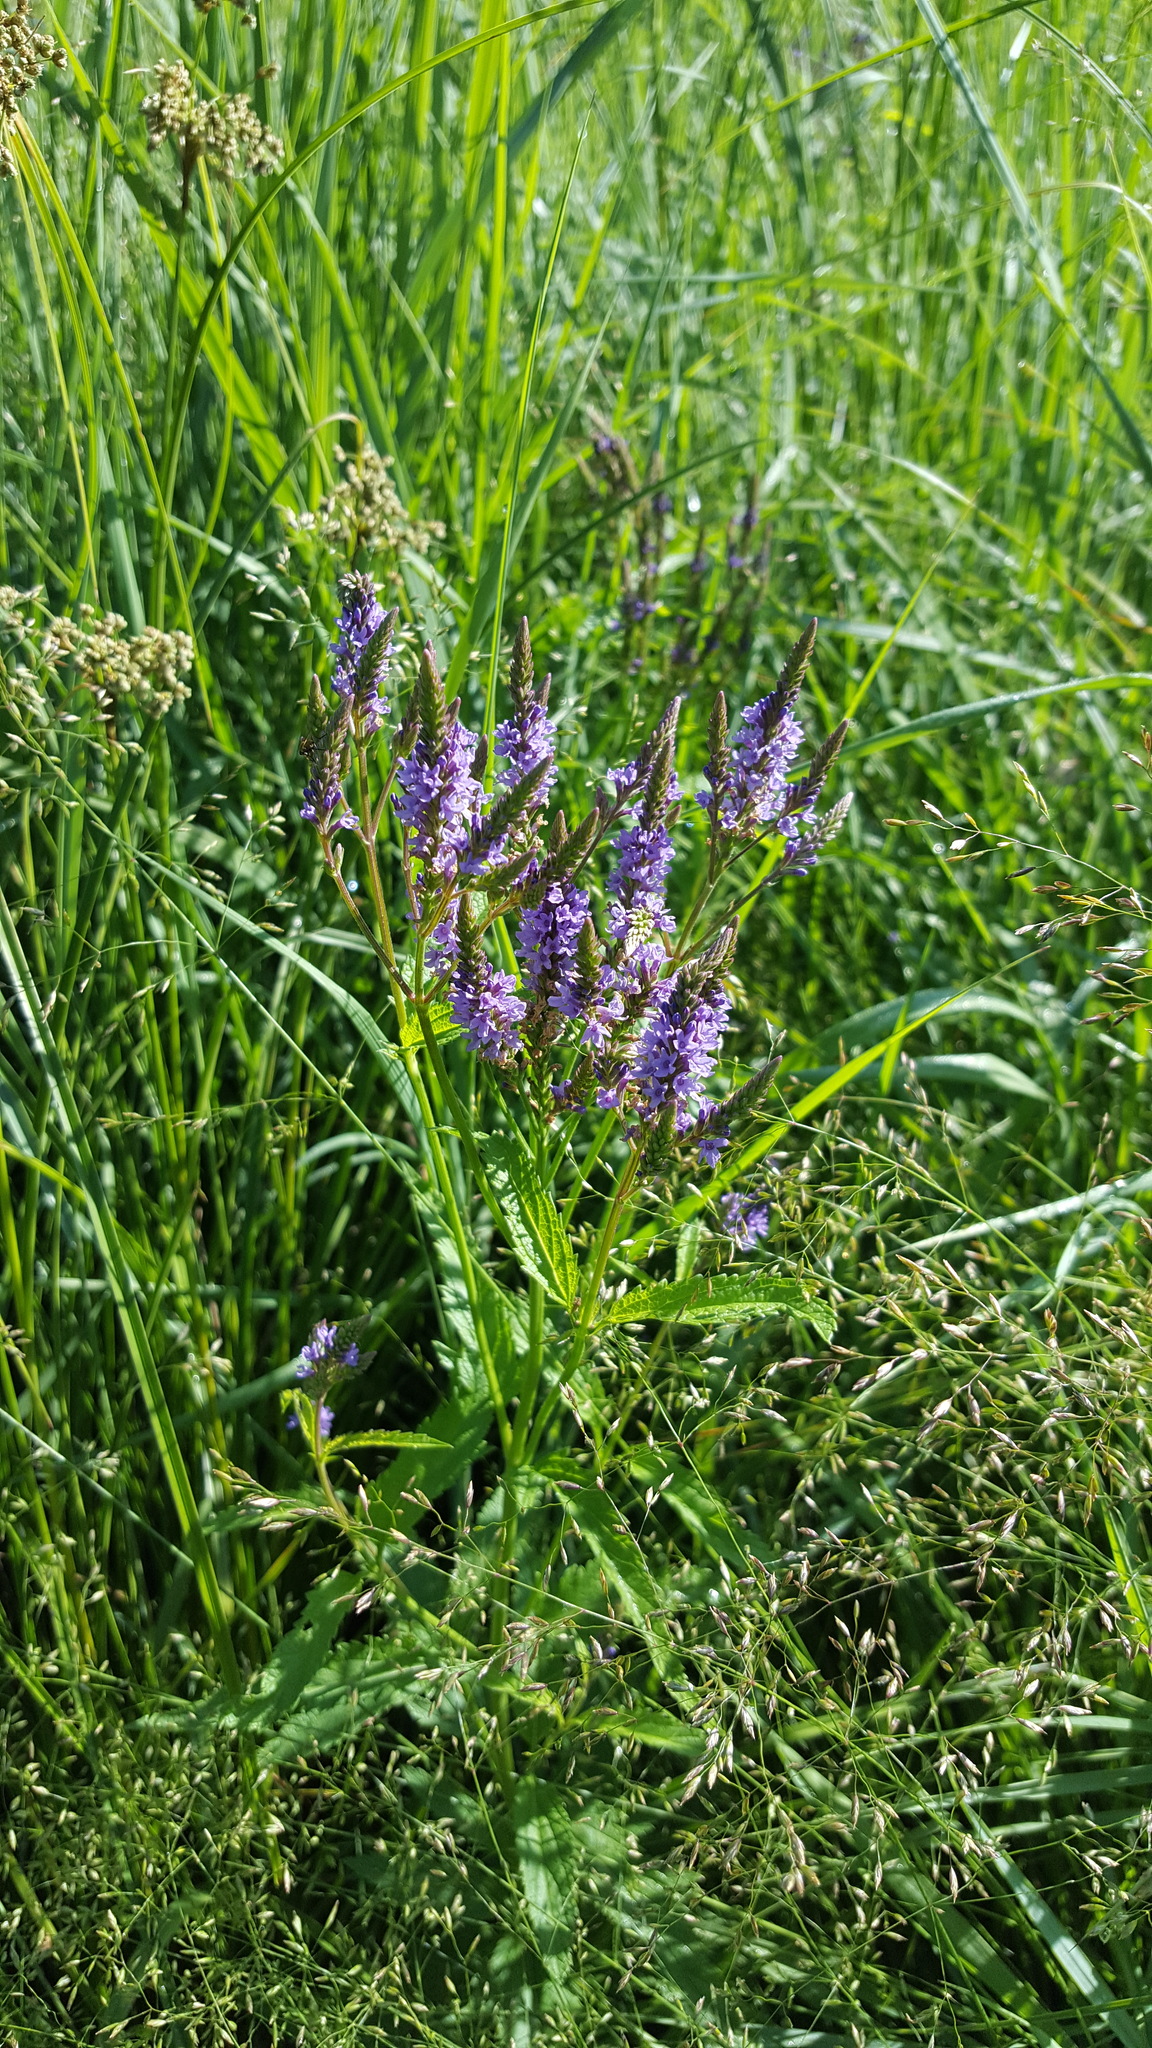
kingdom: Plantae
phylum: Tracheophyta
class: Magnoliopsida
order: Lamiales
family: Verbenaceae
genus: Verbena
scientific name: Verbena hastata
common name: American blue vervain
